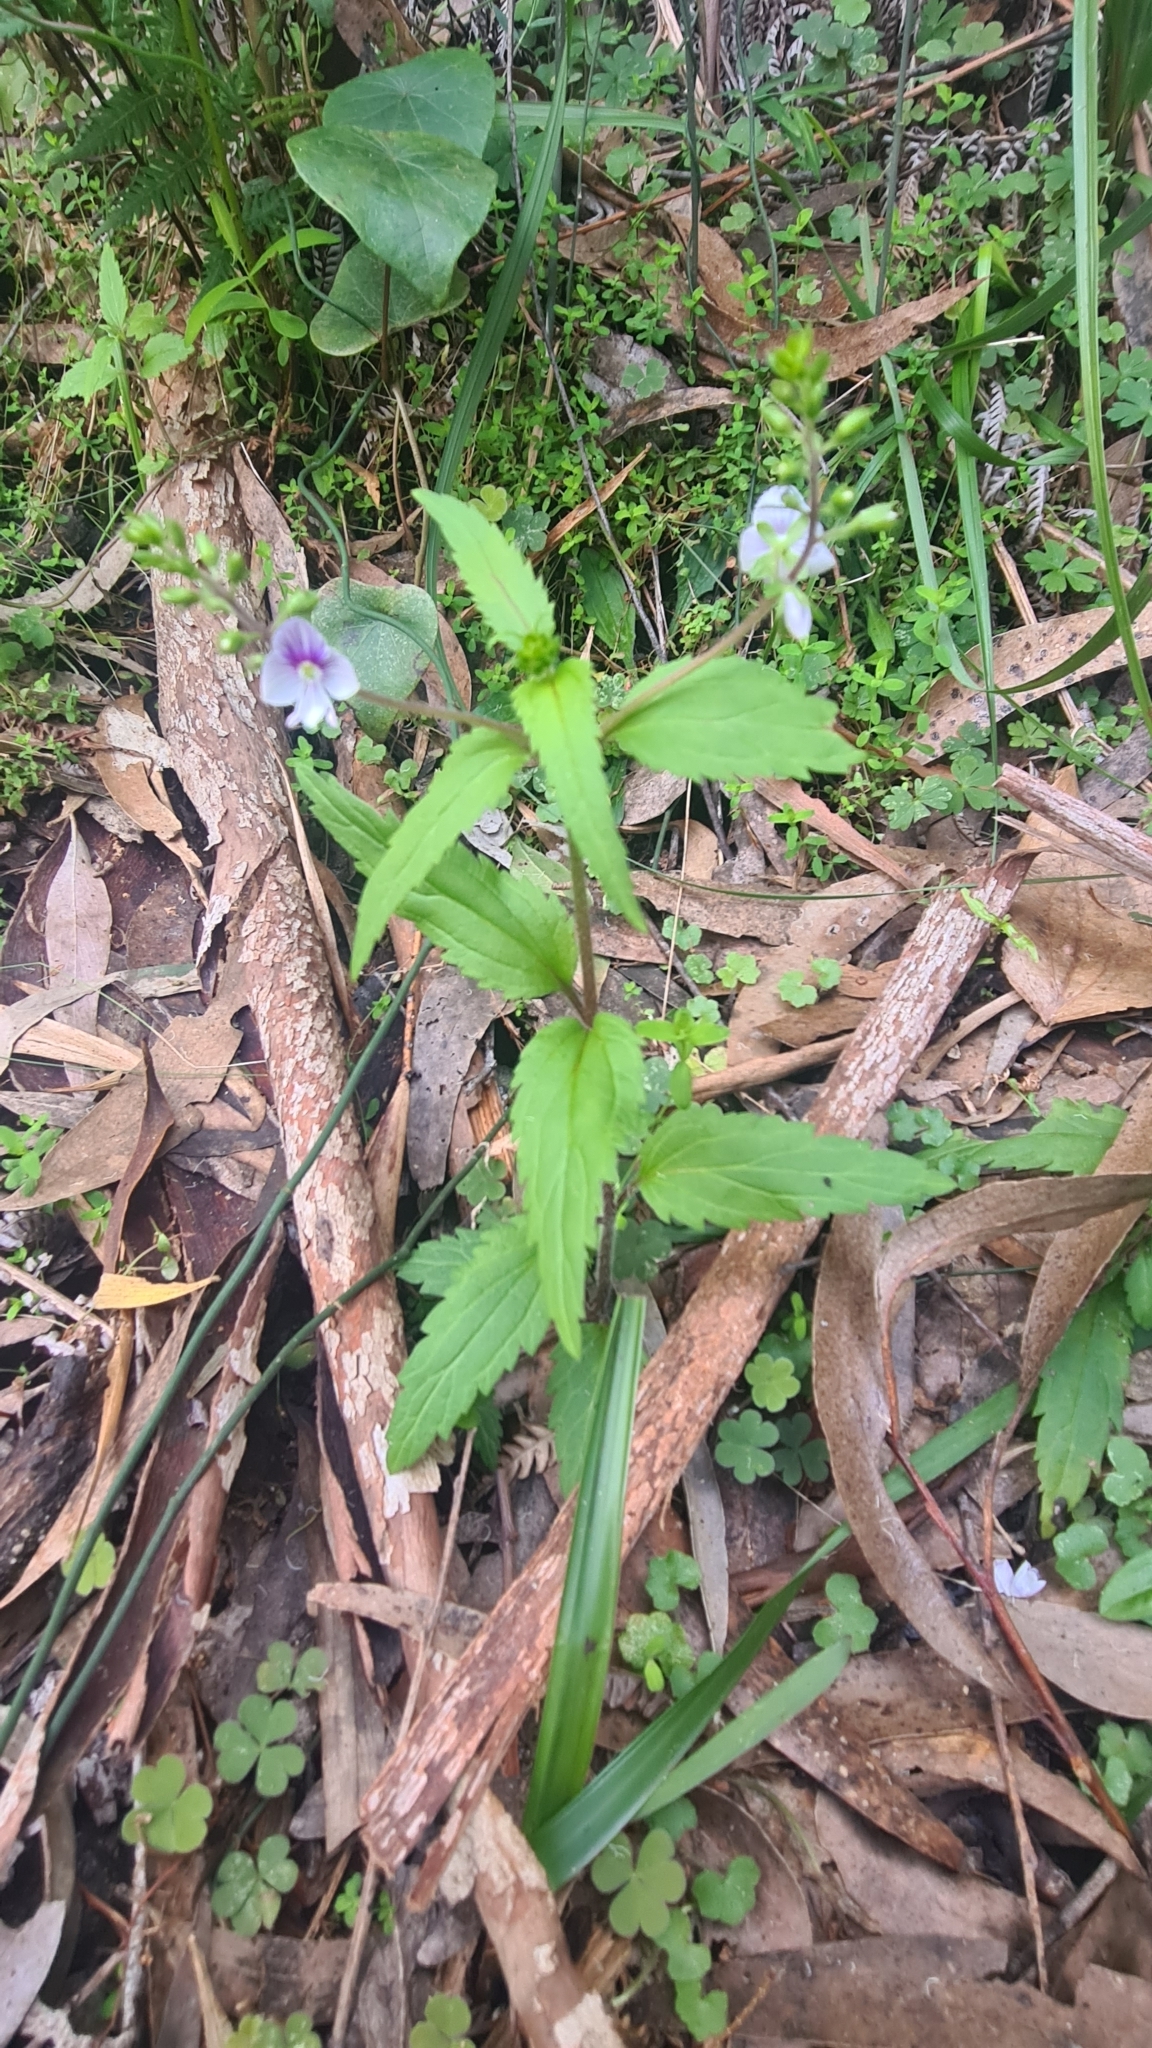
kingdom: Plantae
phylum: Tracheophyta
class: Magnoliopsida
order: Lamiales
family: Plantaginaceae
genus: Veronica
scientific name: Veronica notabilis
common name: Forest speedwell
